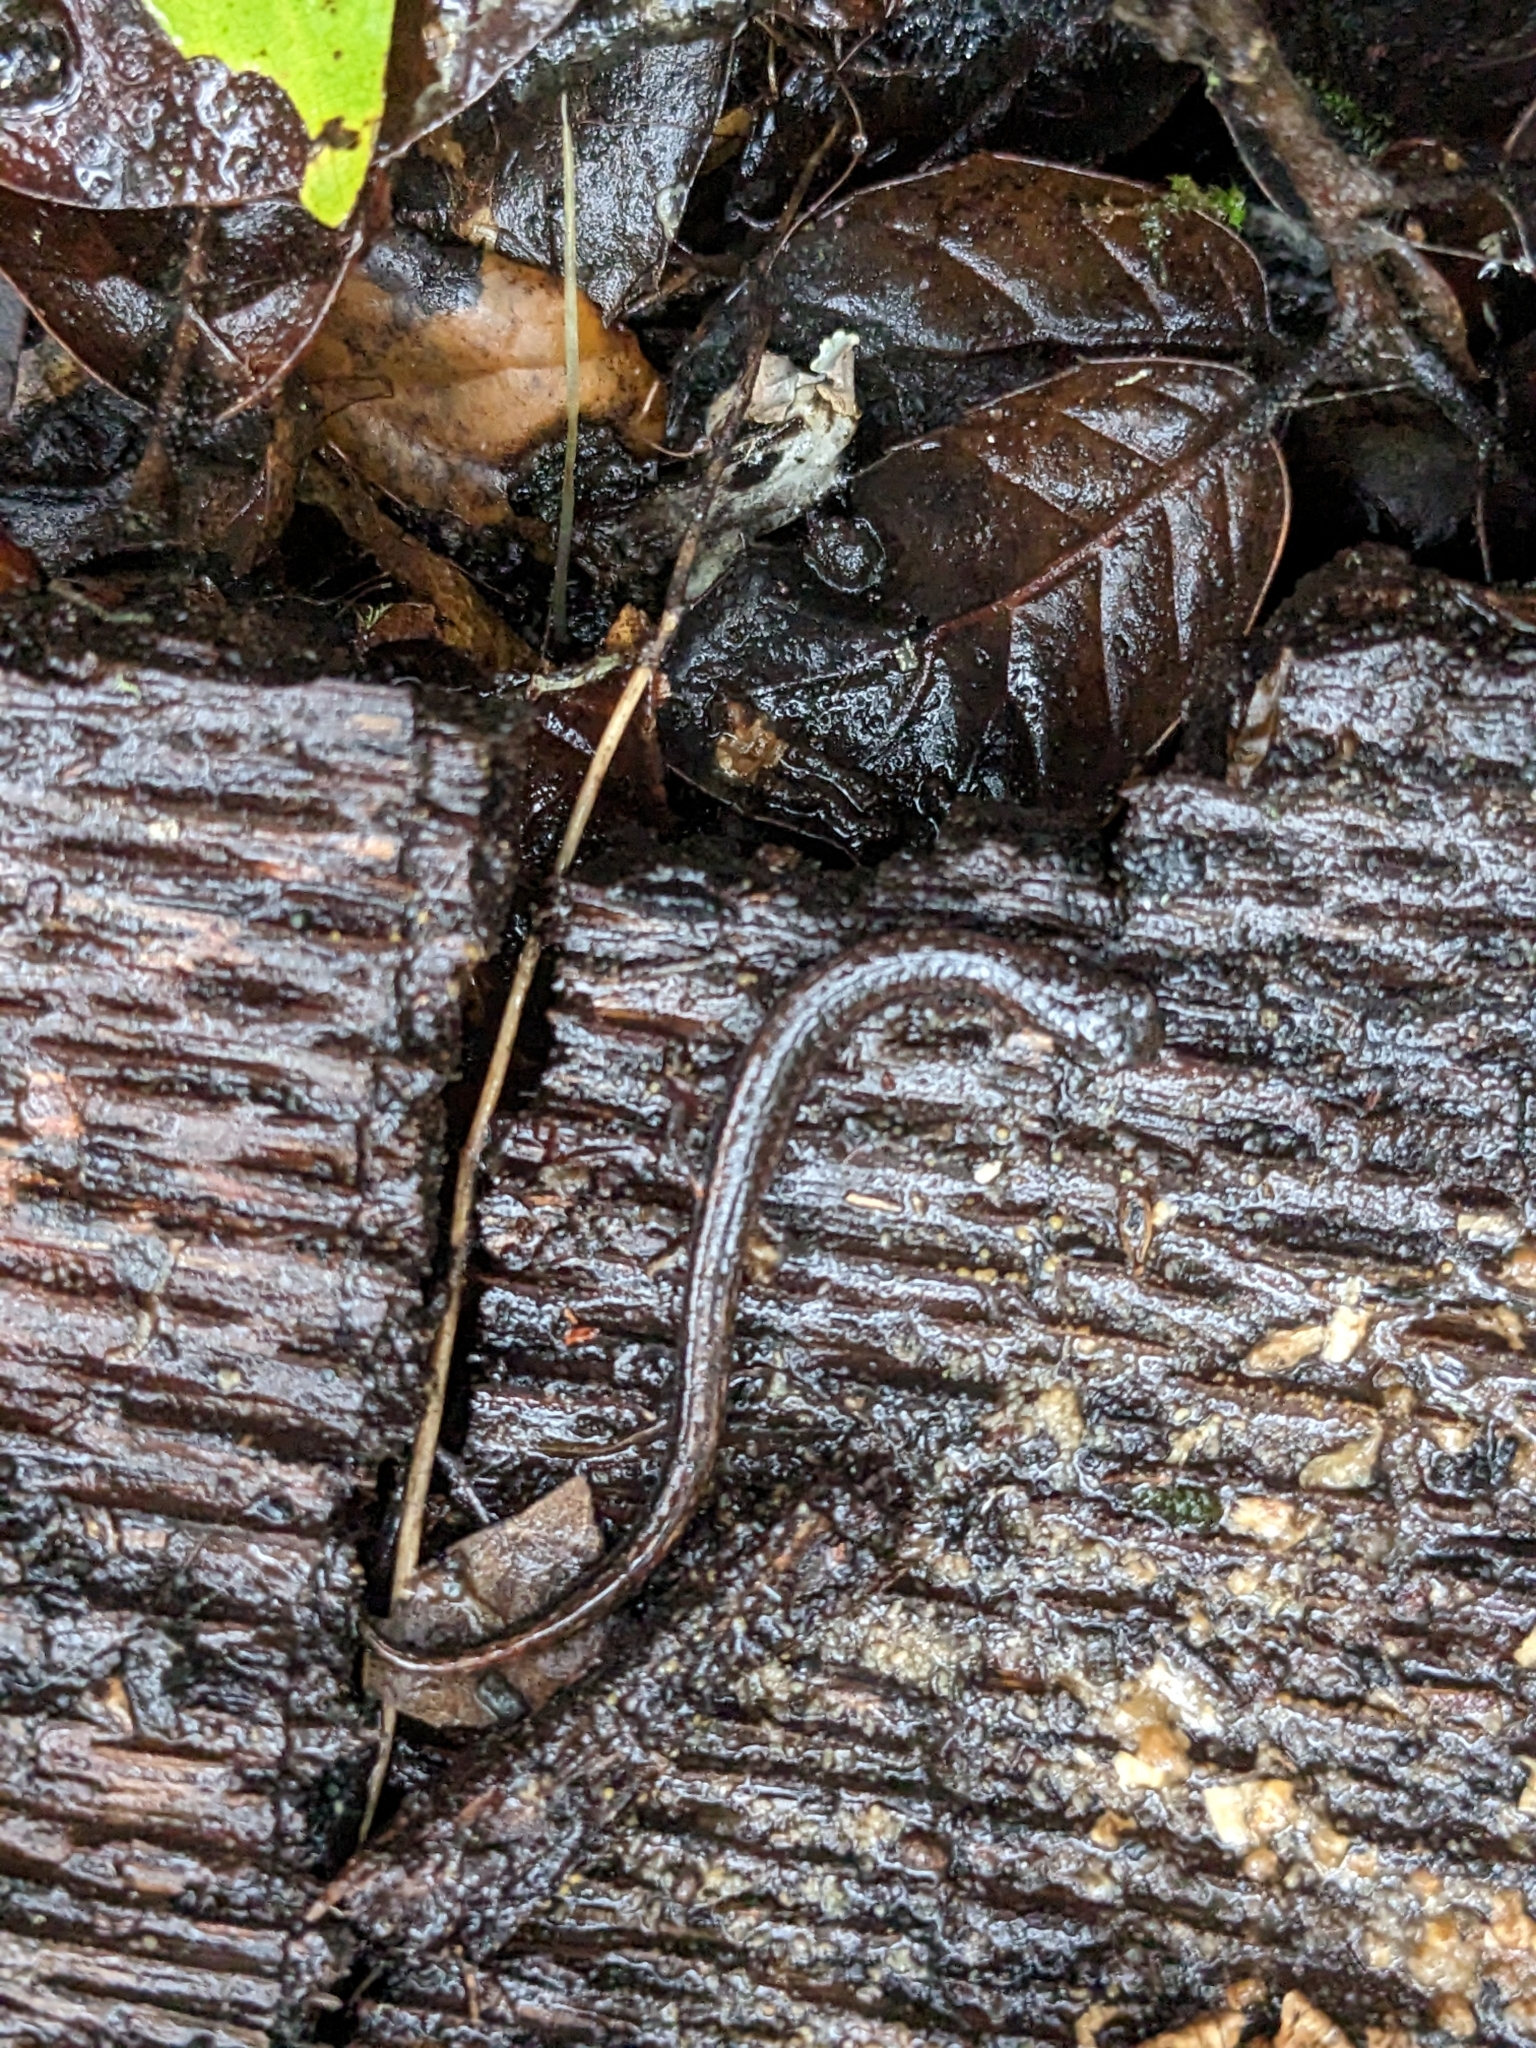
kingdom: Animalia
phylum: Chordata
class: Amphibia
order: Caudata
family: Plethodontidae
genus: Batrachoseps
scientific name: Batrachoseps attenuatus
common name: California slender salamander
